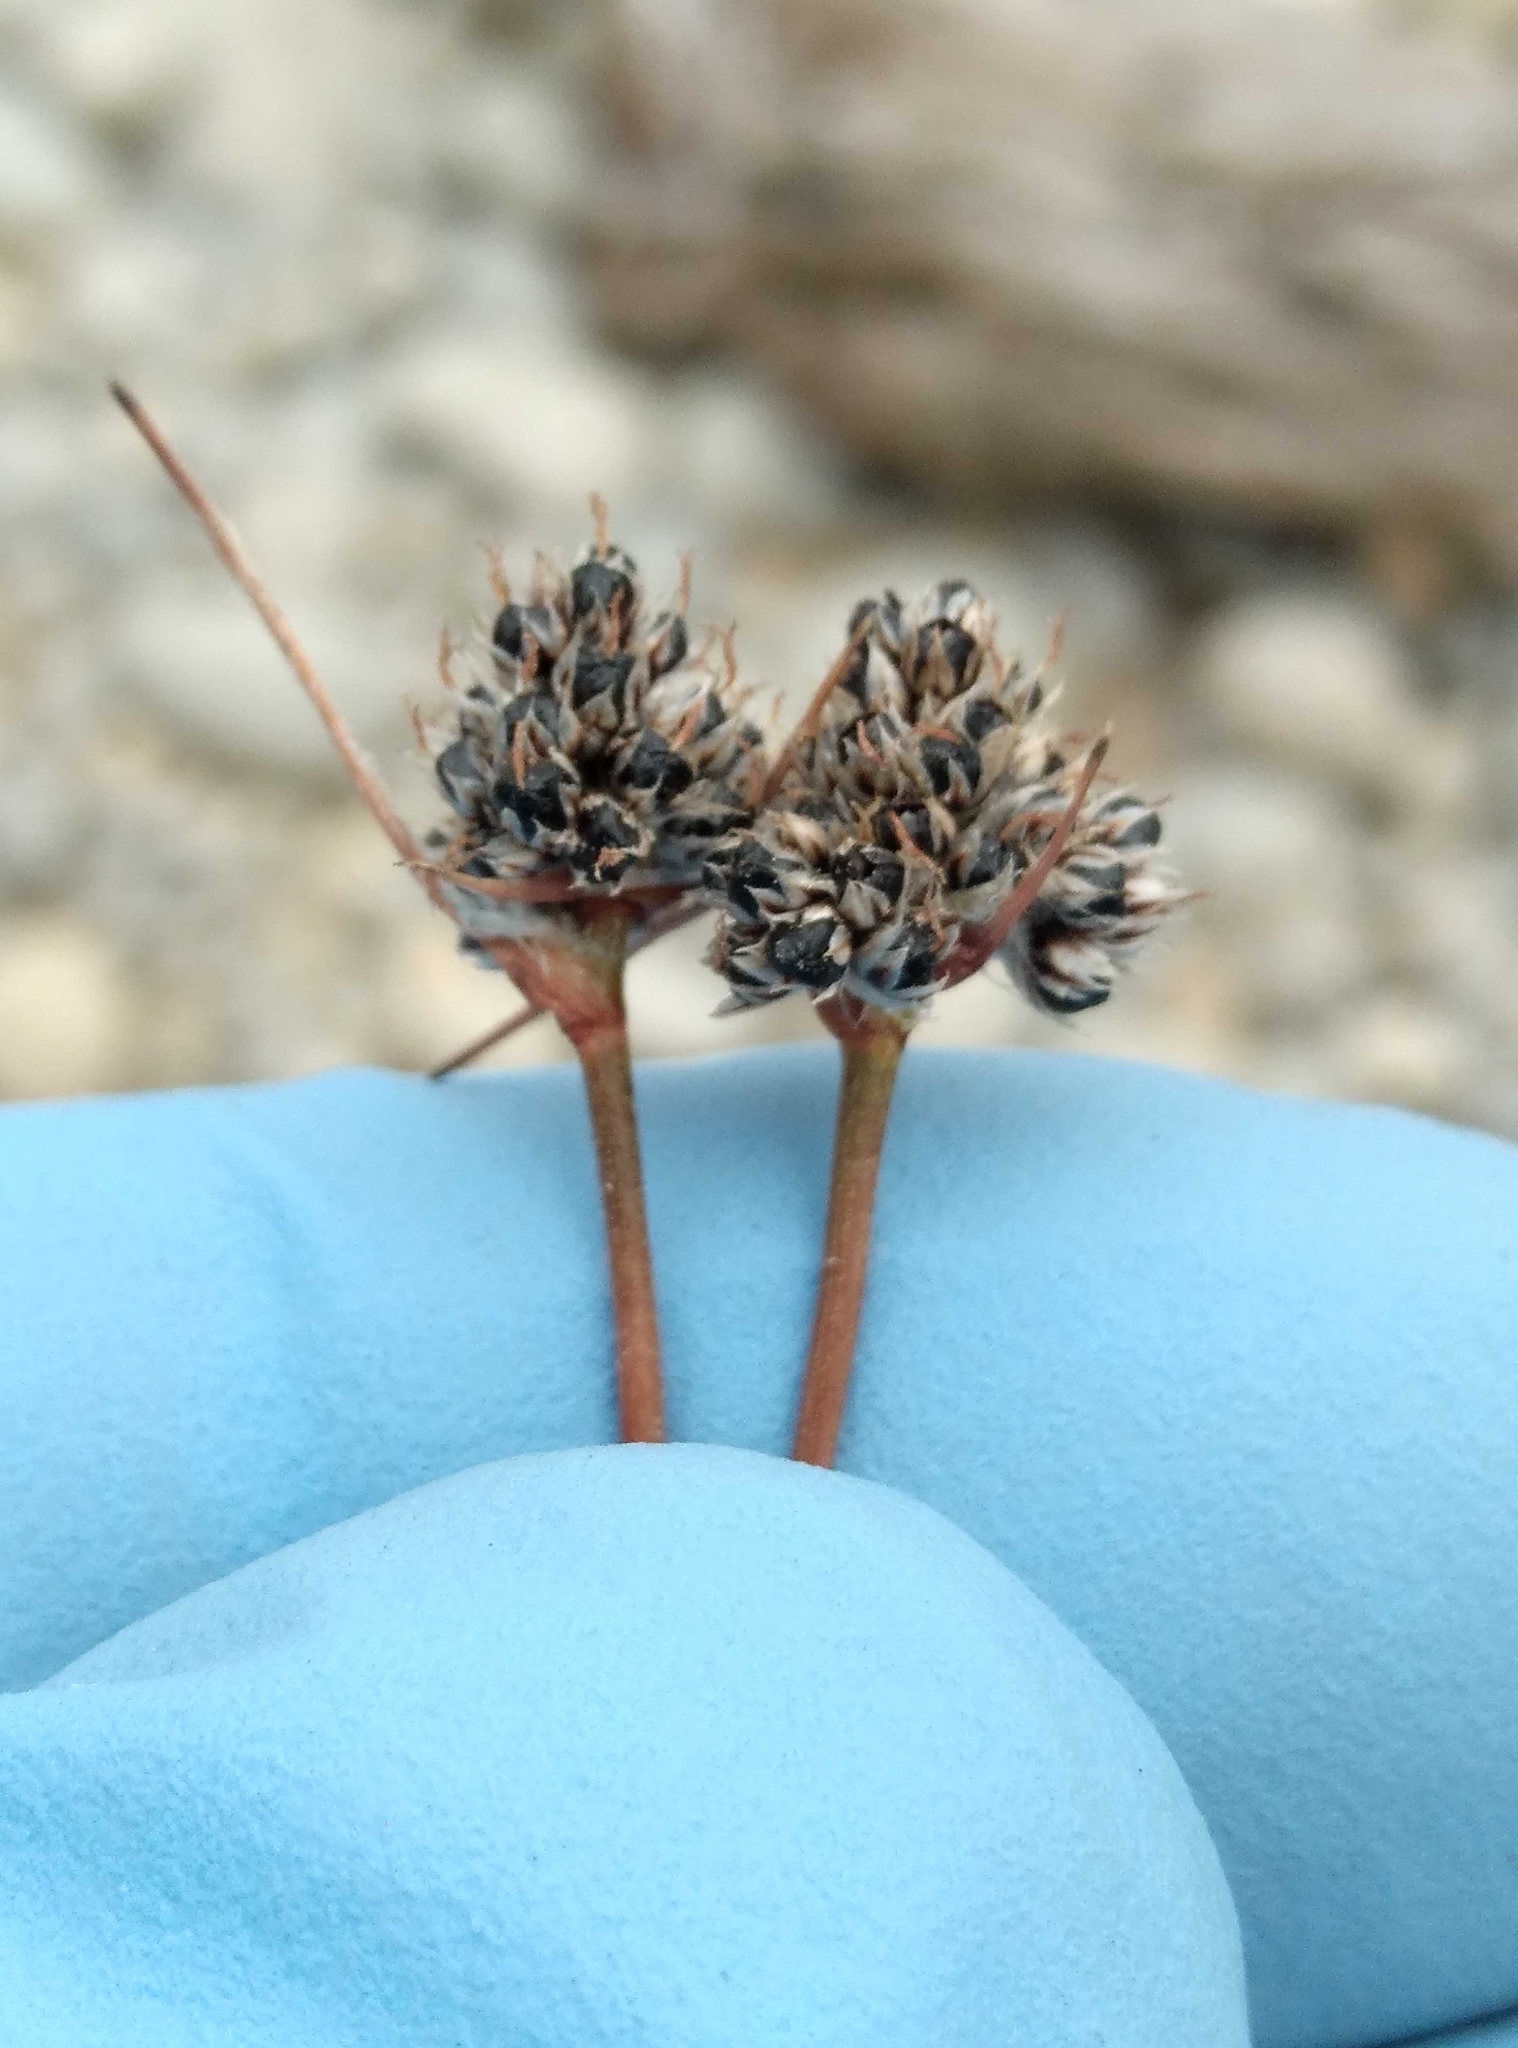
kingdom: Plantae
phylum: Tracheophyta
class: Liliopsida
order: Poales
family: Juncaceae
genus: Luzula
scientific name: Luzula rufa
